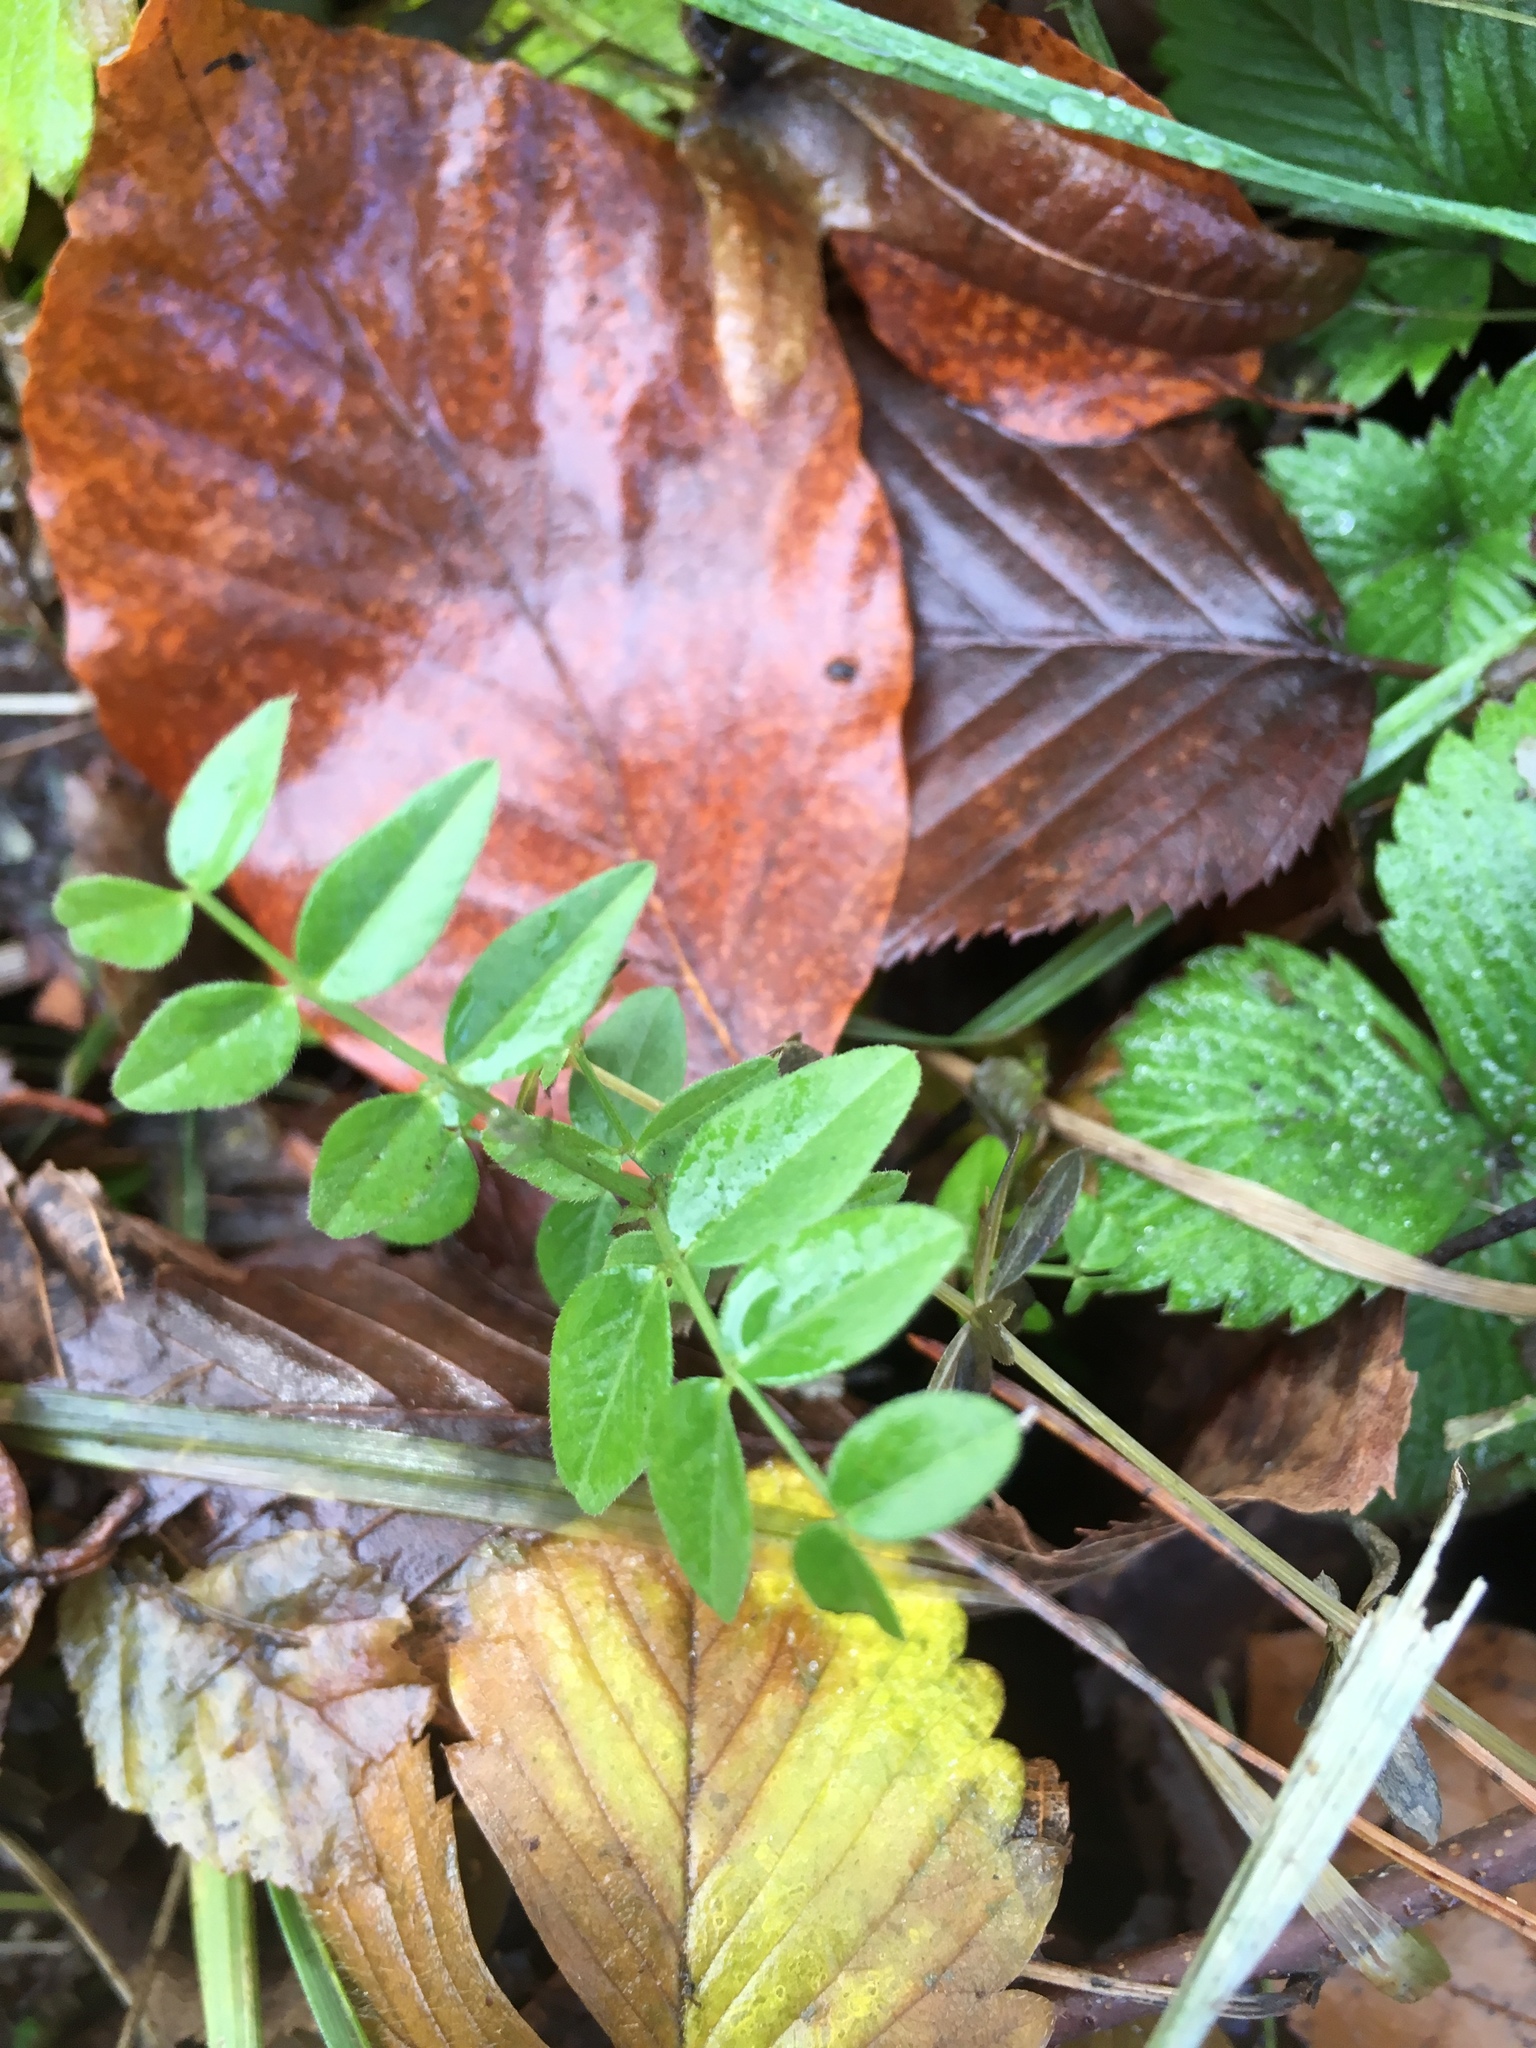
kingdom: Plantae
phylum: Tracheophyta
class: Magnoliopsida
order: Fabales
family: Fabaceae
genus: Vicia
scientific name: Vicia sepium
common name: Bush vetch
